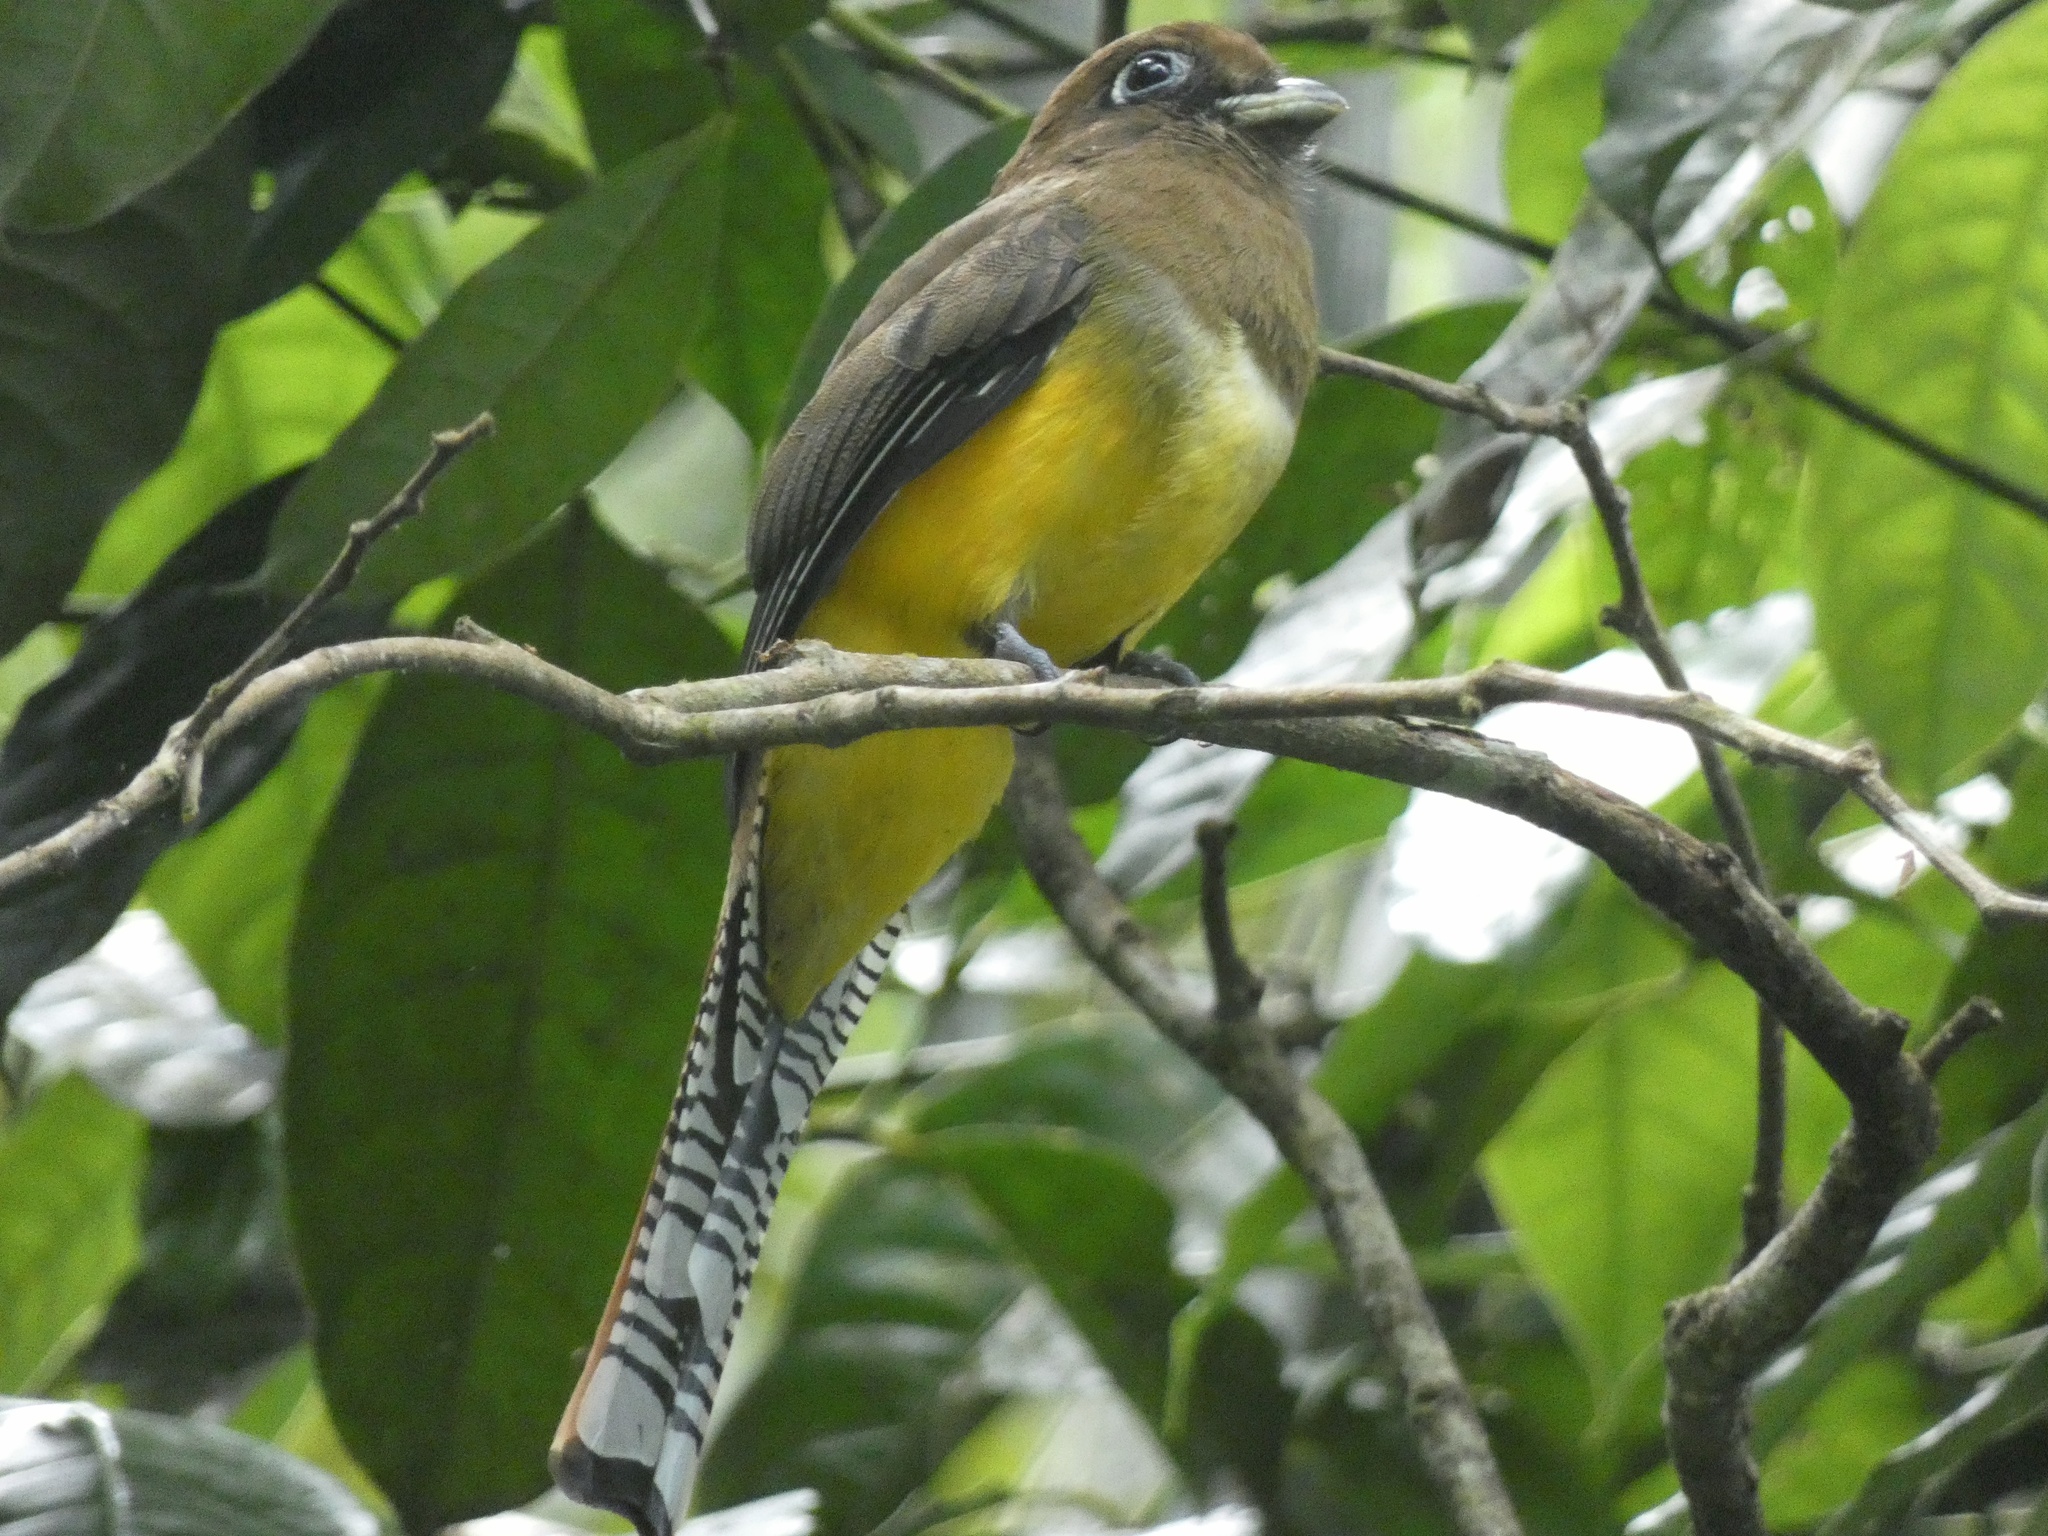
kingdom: Animalia
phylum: Chordata
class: Aves
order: Trogoniformes
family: Trogonidae
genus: Trogon
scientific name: Trogon rufus
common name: Black-throated trogon
